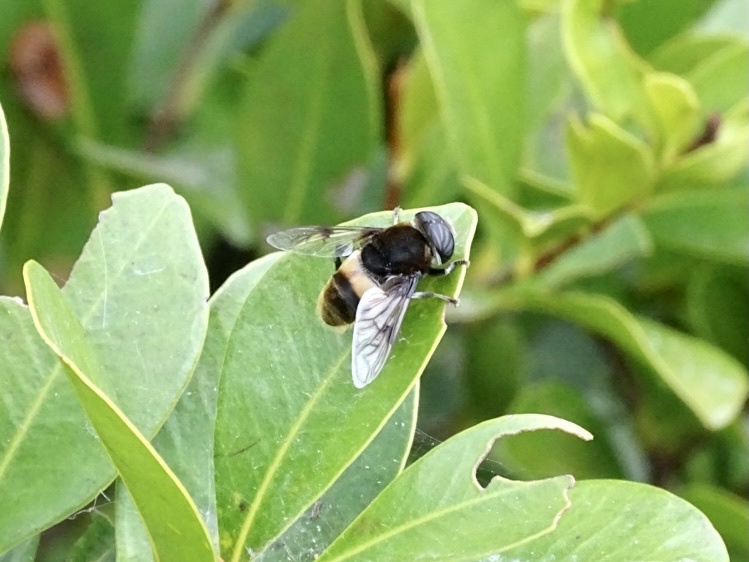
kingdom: Animalia
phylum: Arthropoda
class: Insecta
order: Diptera
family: Syrphidae
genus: Phytomia
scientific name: Phytomia zonata
